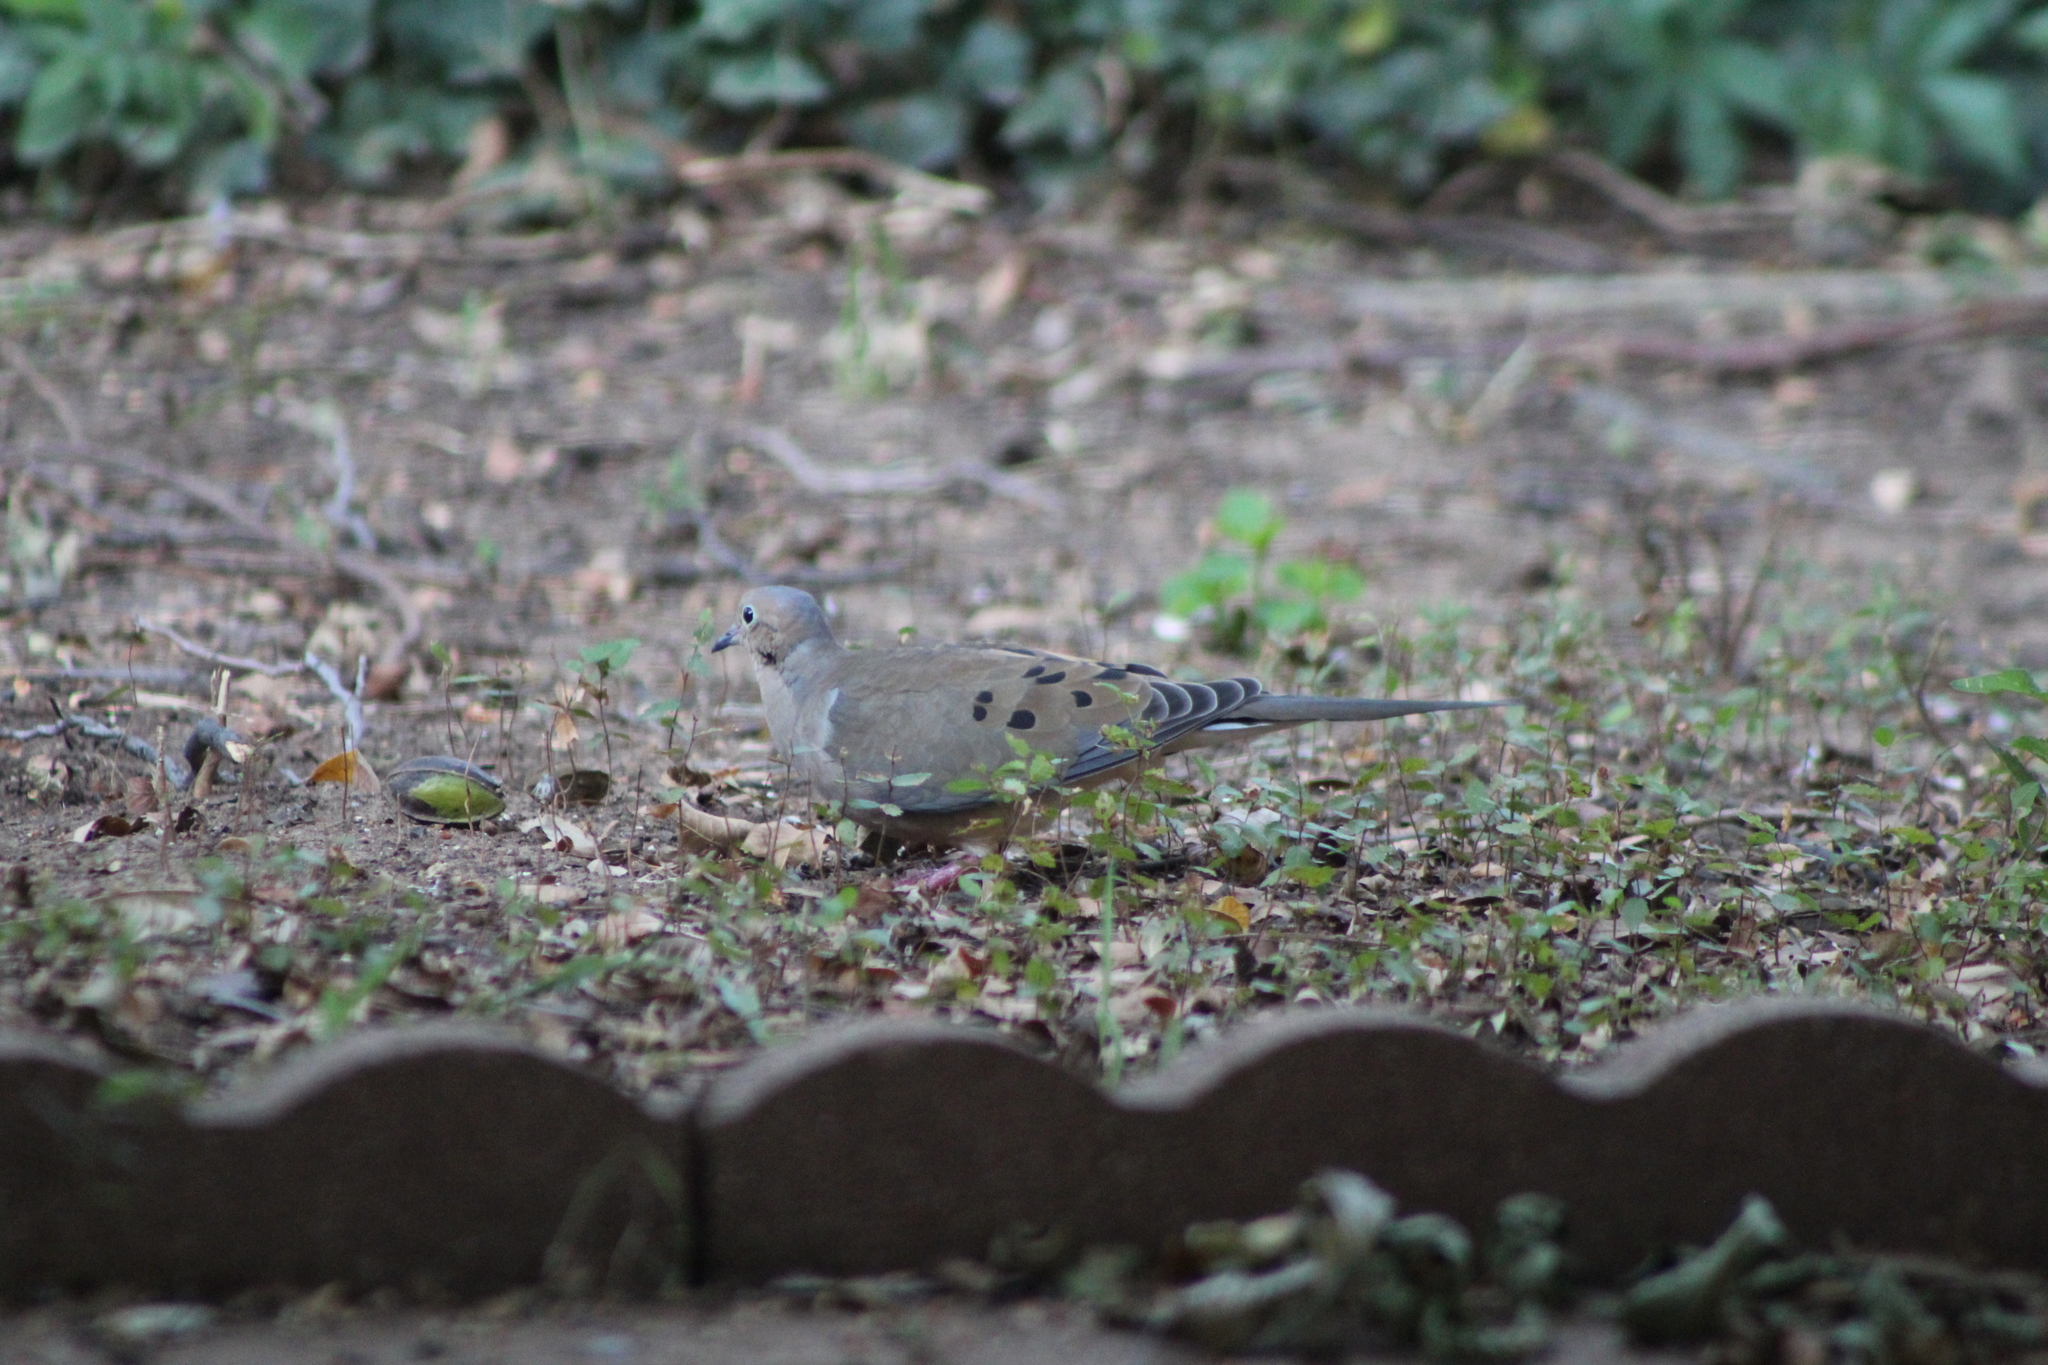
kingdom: Animalia
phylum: Chordata
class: Aves
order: Columbiformes
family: Columbidae
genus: Zenaida
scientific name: Zenaida macroura
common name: Mourning dove
